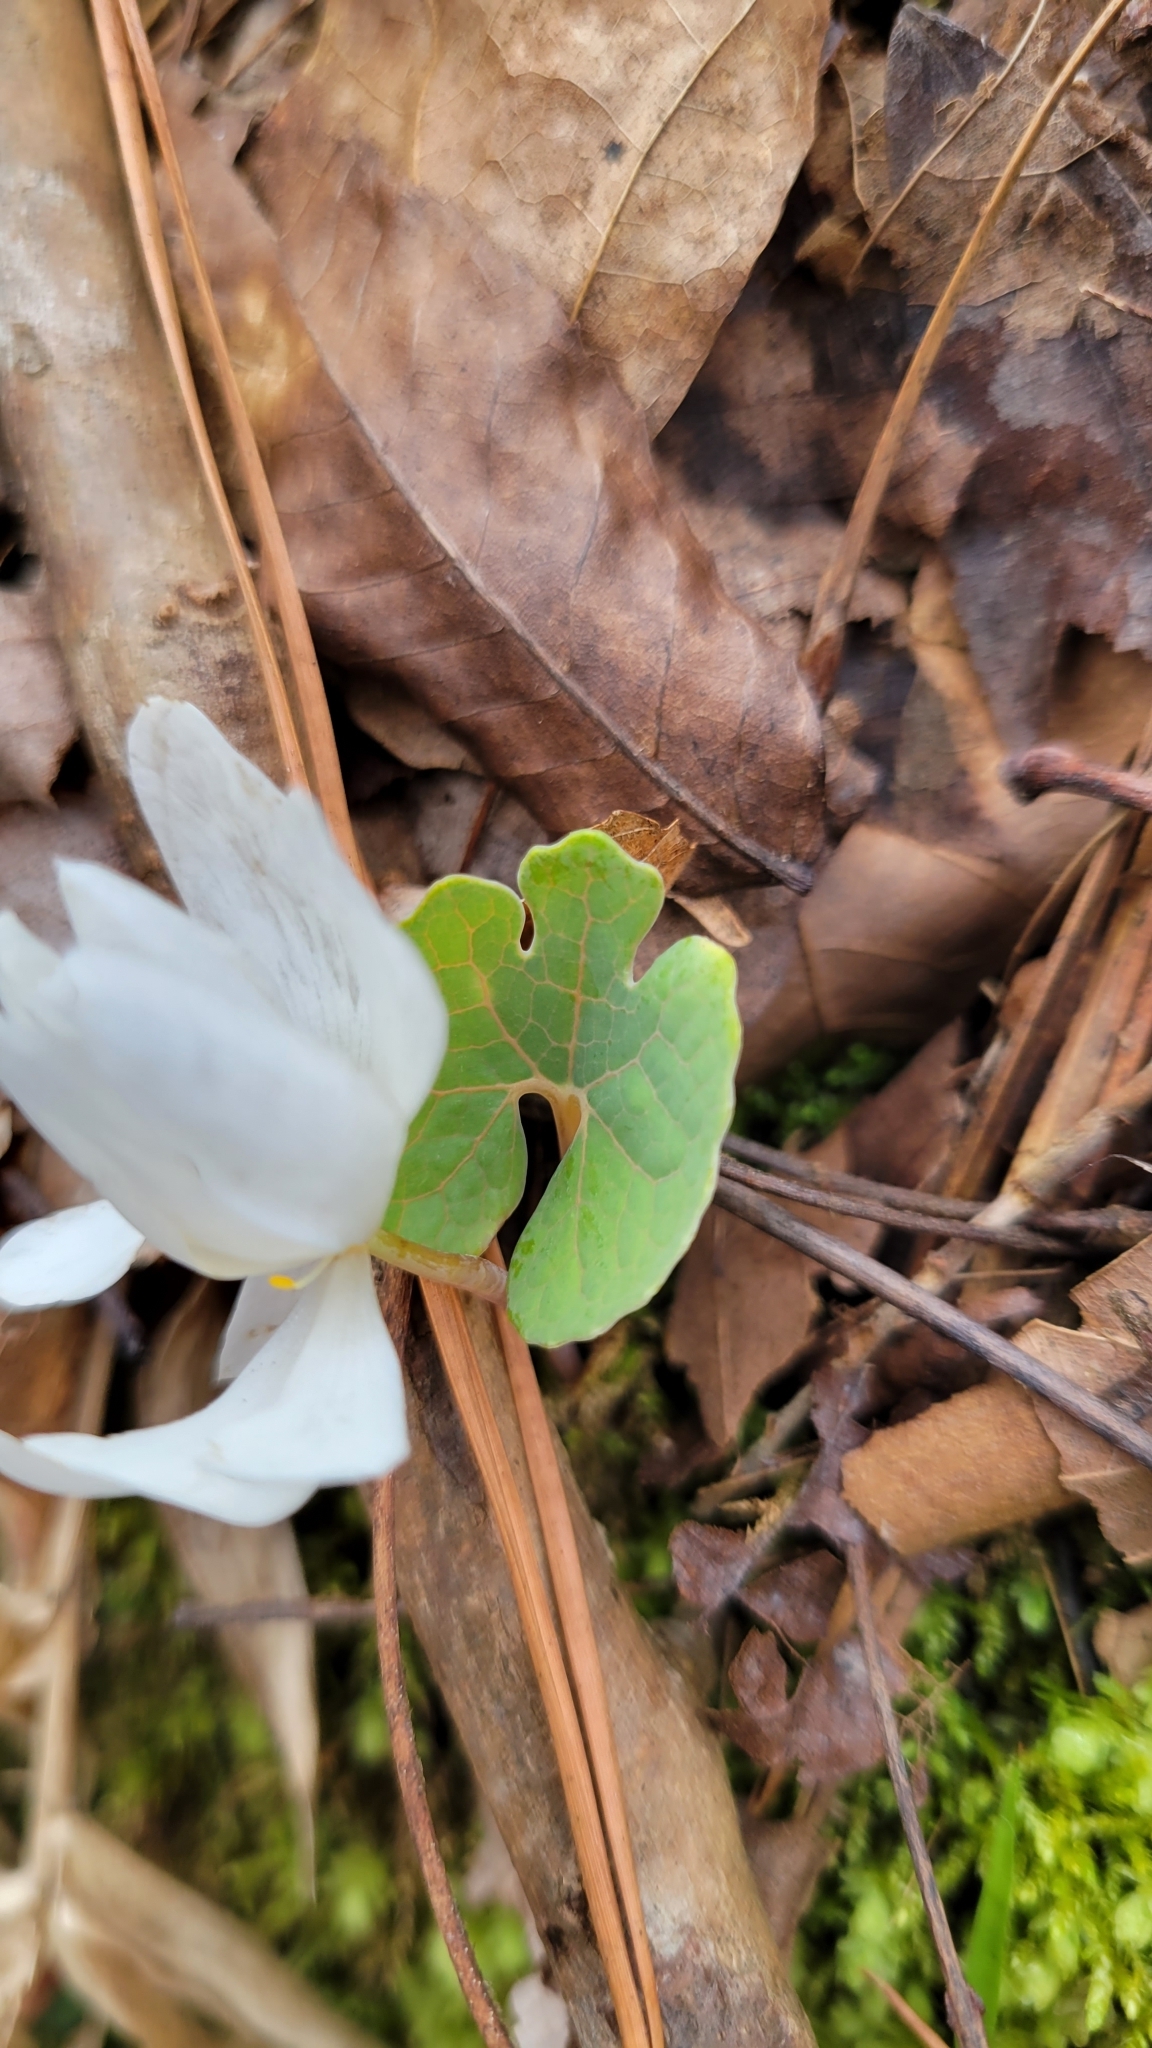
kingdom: Plantae
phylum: Tracheophyta
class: Magnoliopsida
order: Ranunculales
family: Papaveraceae
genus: Sanguinaria
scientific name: Sanguinaria canadensis
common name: Bloodroot
